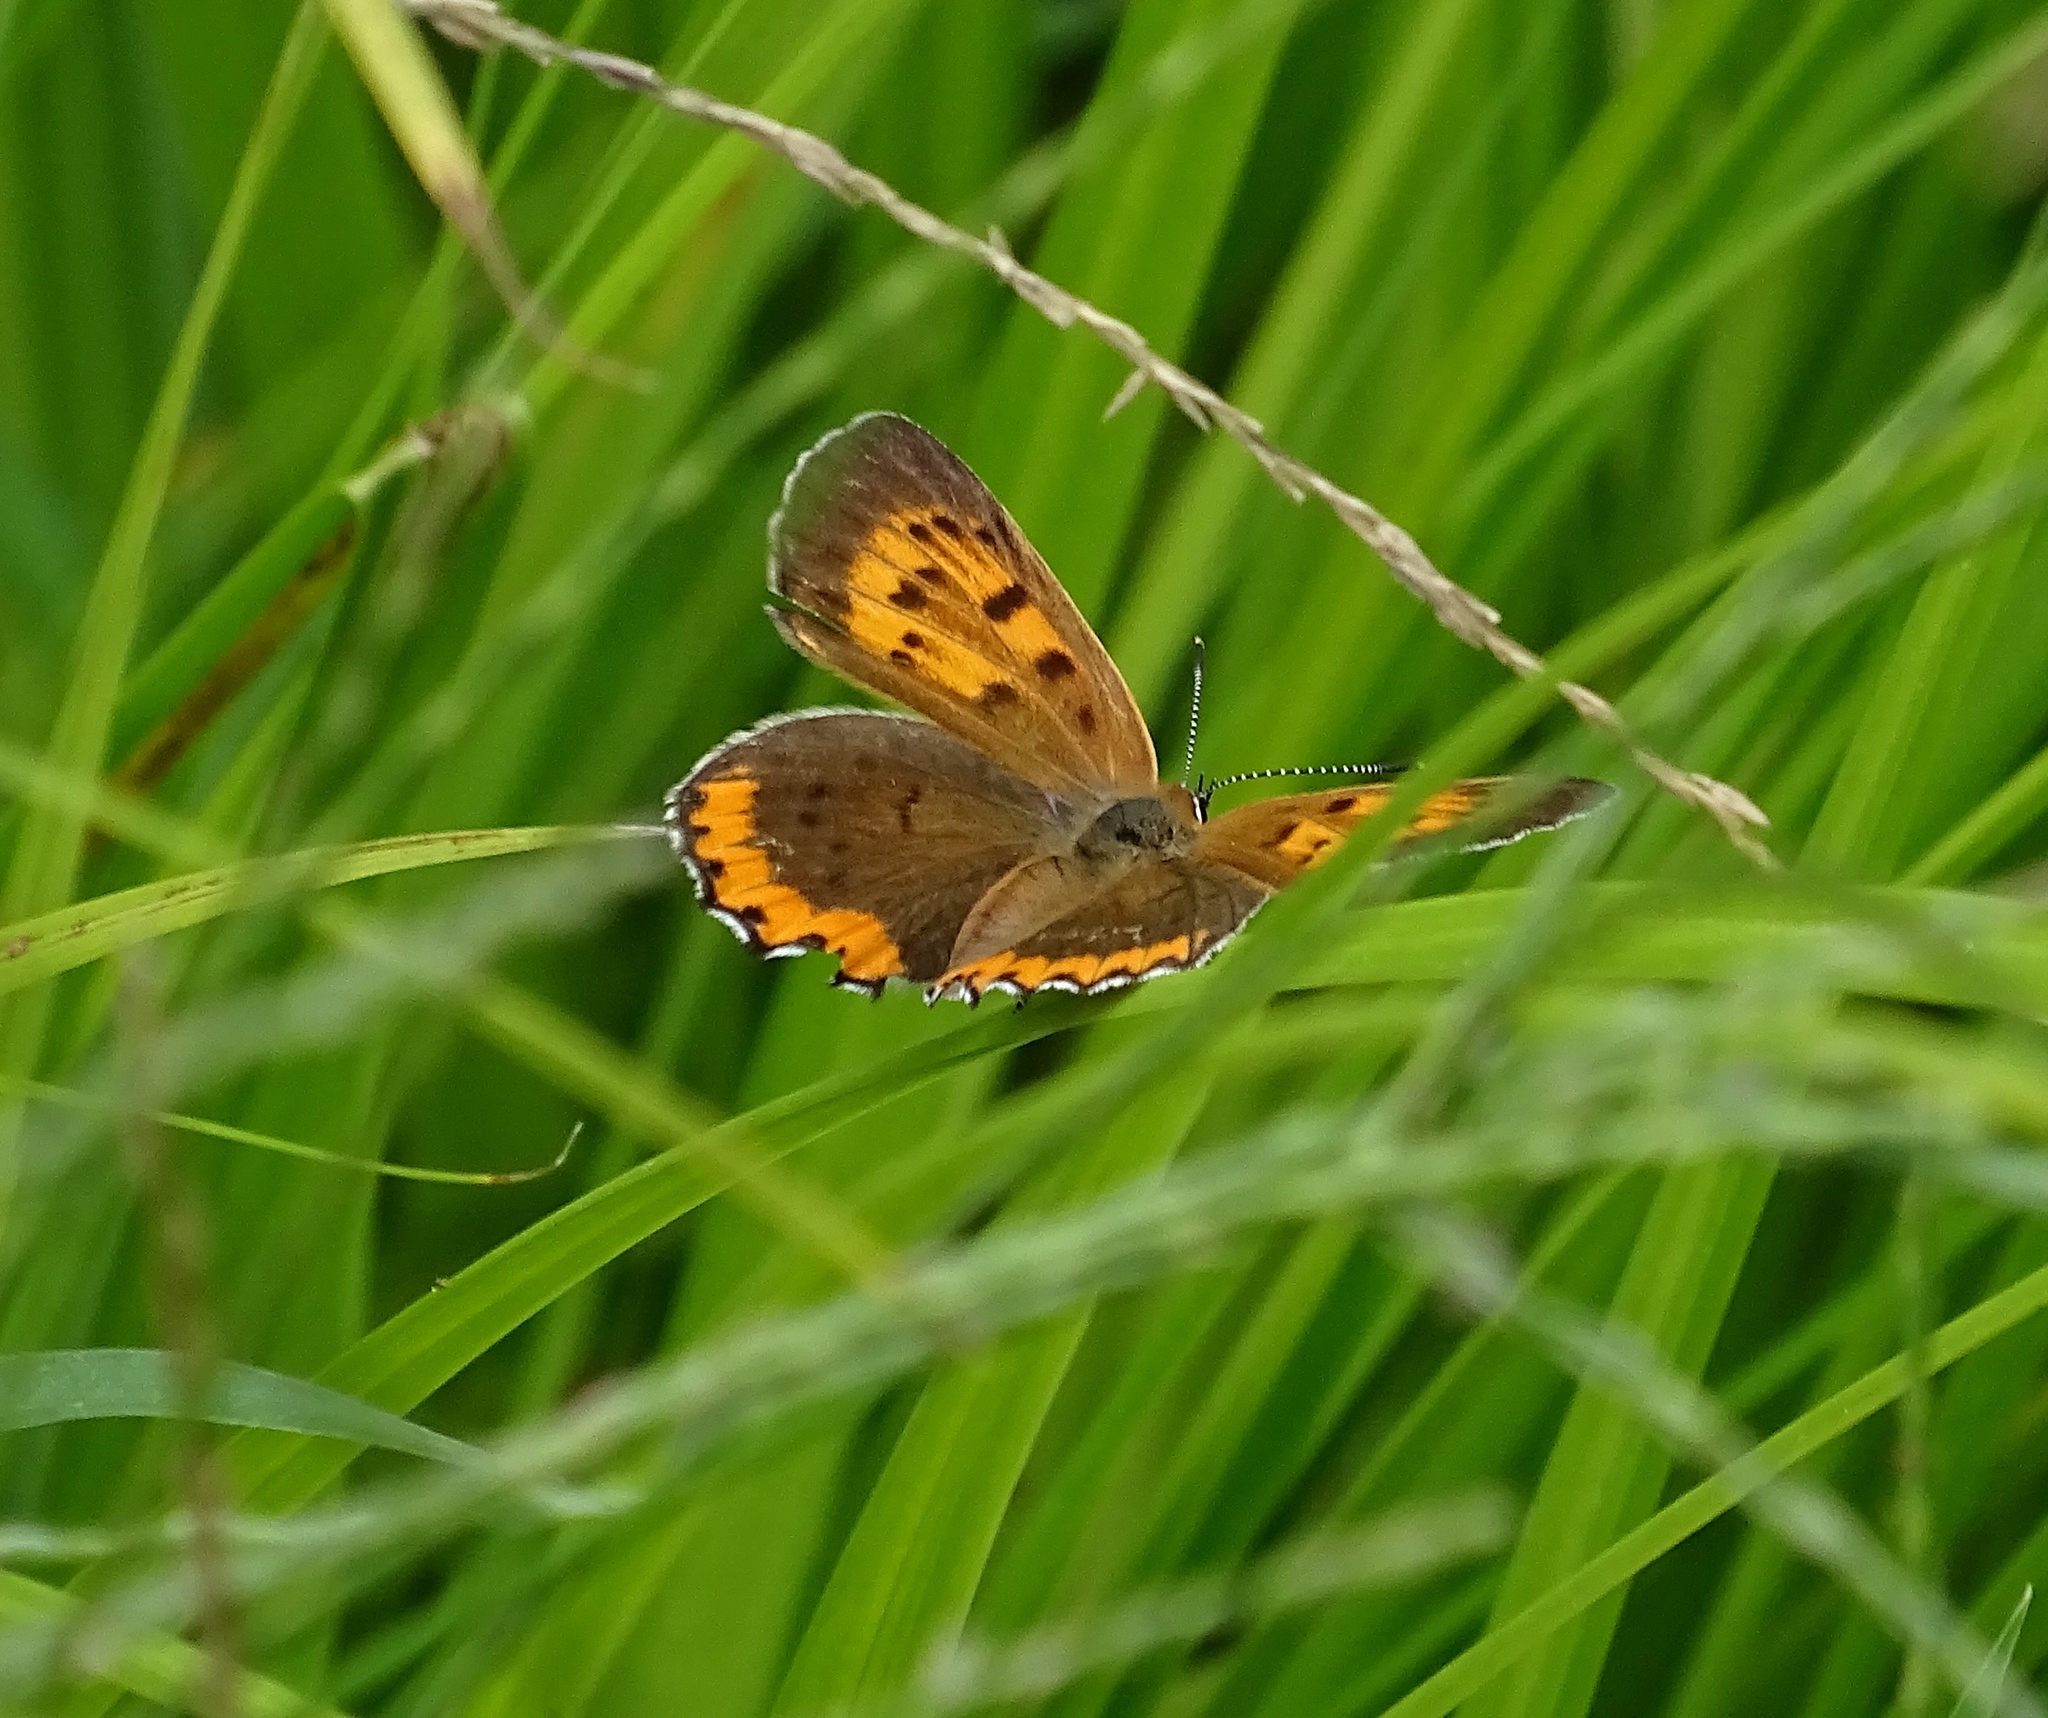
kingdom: Animalia
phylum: Arthropoda
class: Insecta
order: Lepidoptera
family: Lycaenidae
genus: Tharsalea
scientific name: Tharsalea hyllus
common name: Bronze copper
